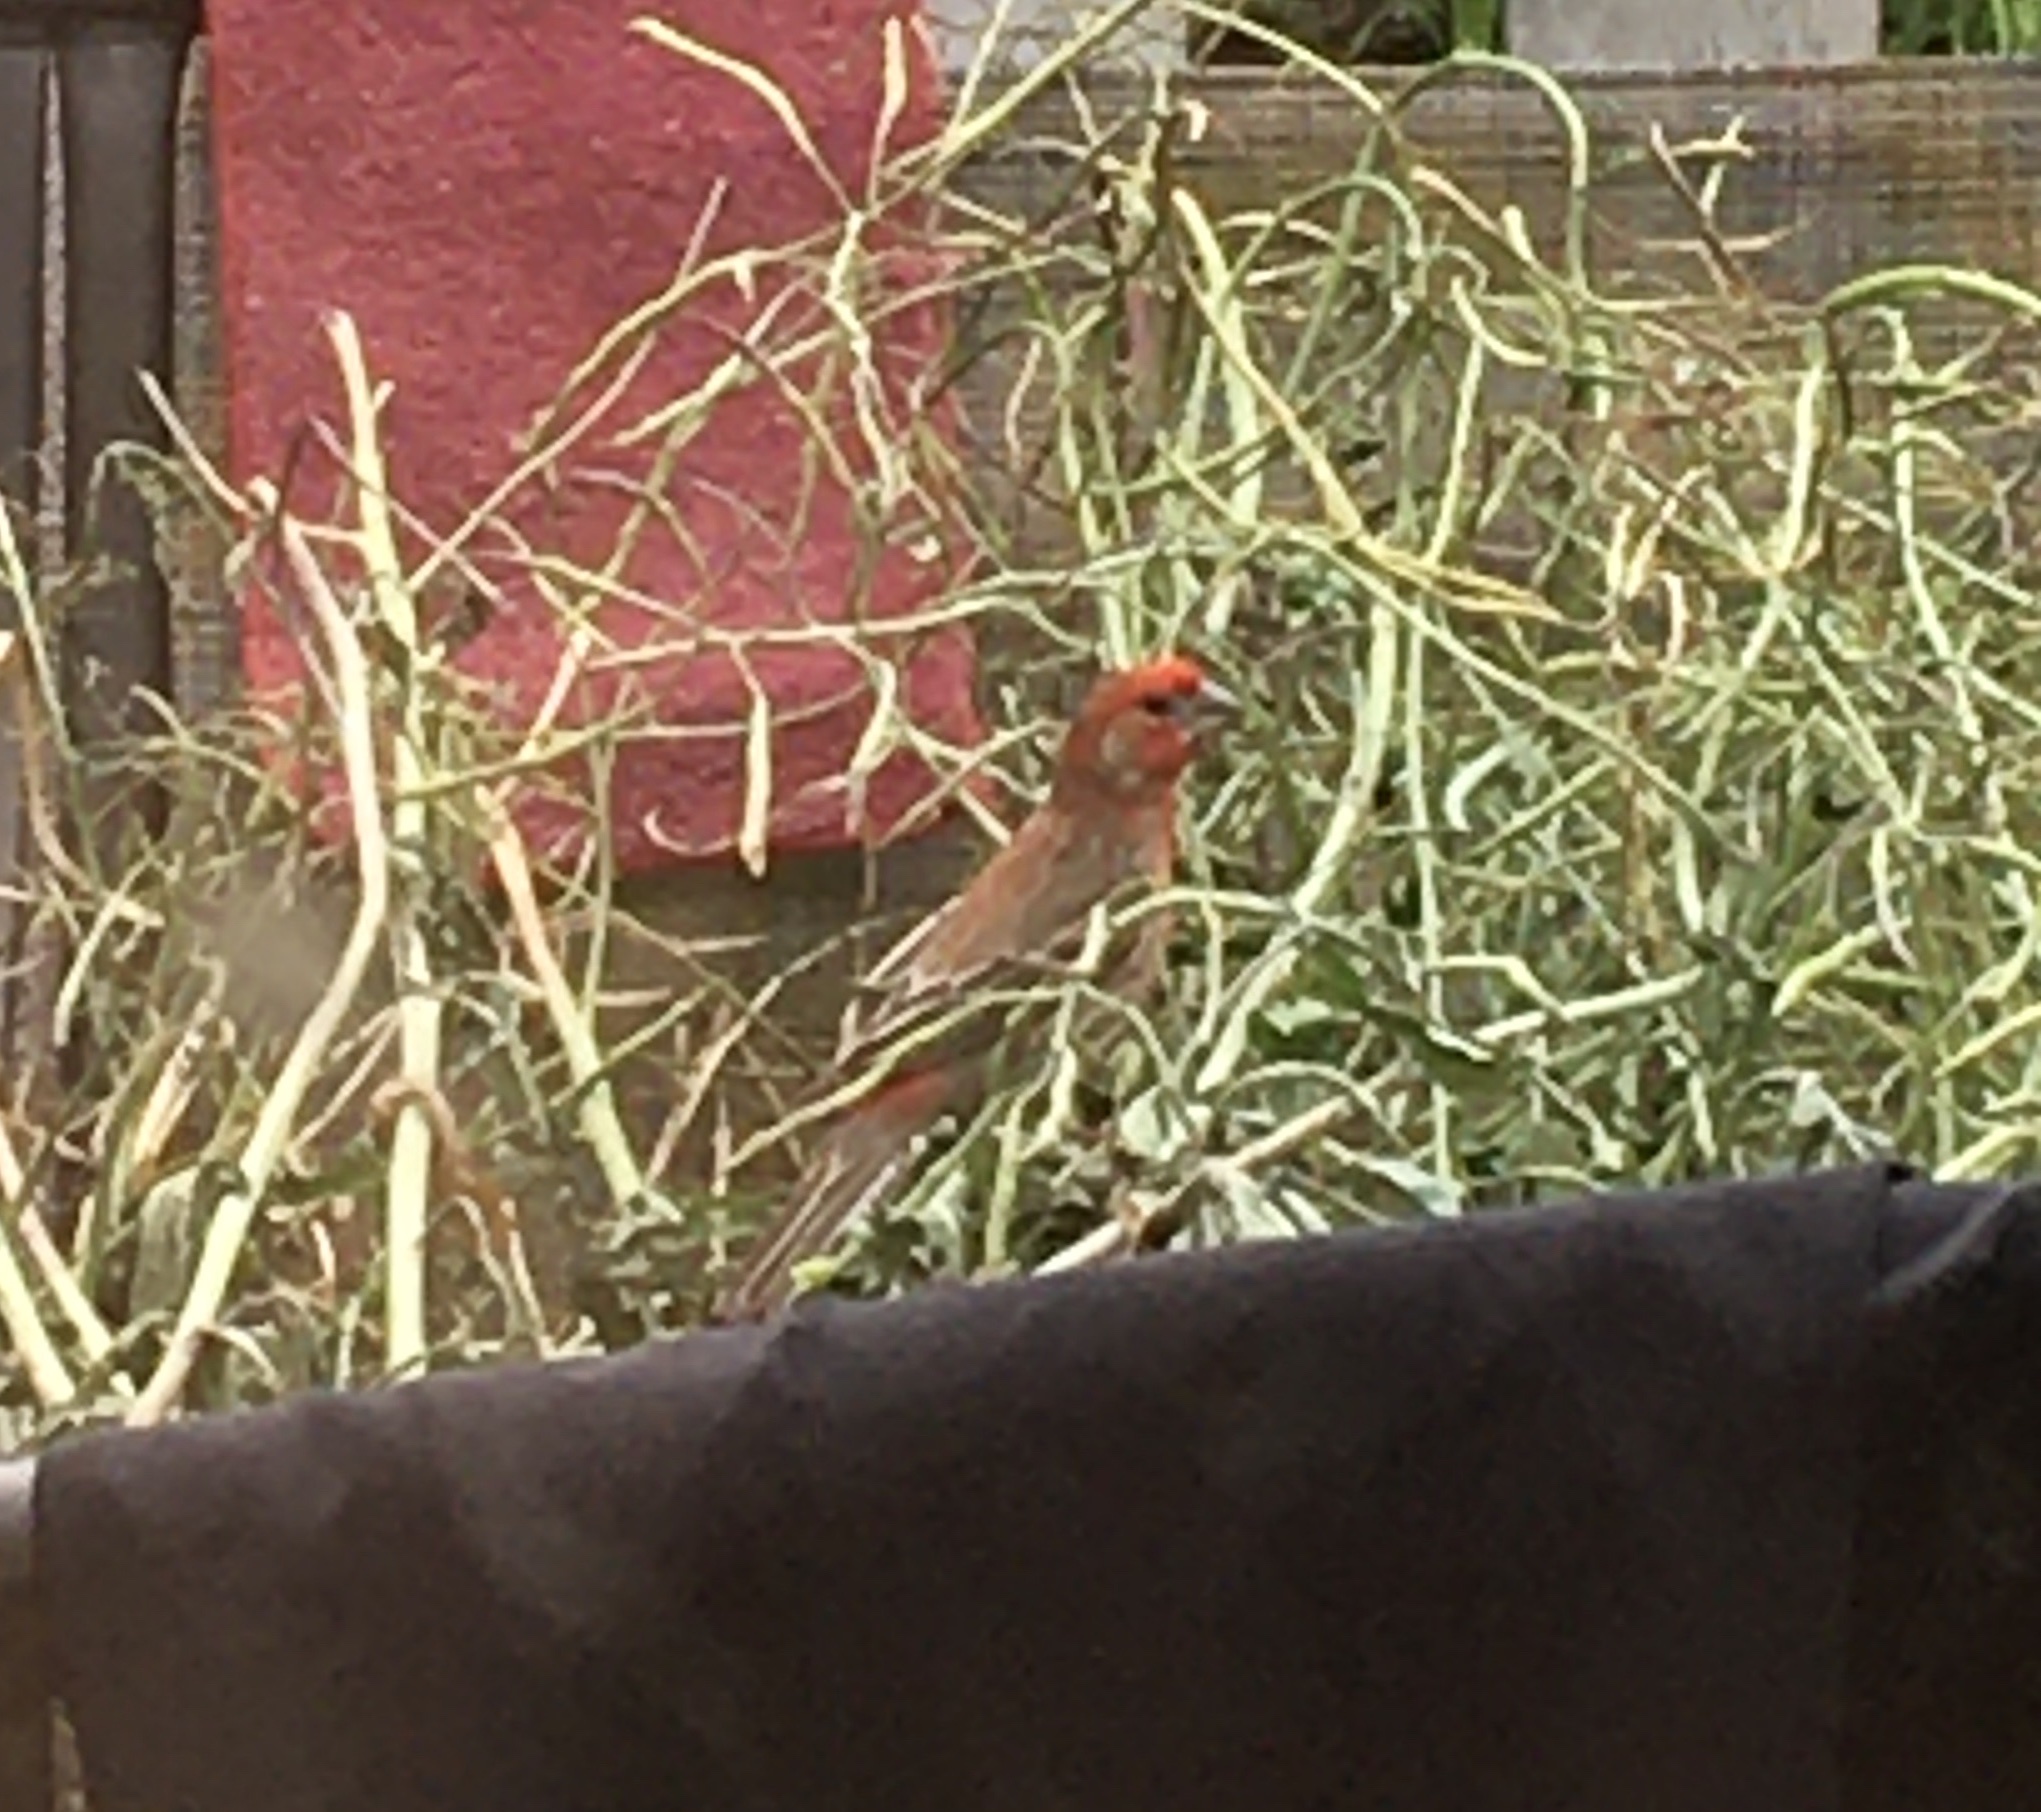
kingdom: Animalia
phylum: Chordata
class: Aves
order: Passeriformes
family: Fringillidae
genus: Haemorhous
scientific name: Haemorhous mexicanus
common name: House finch
